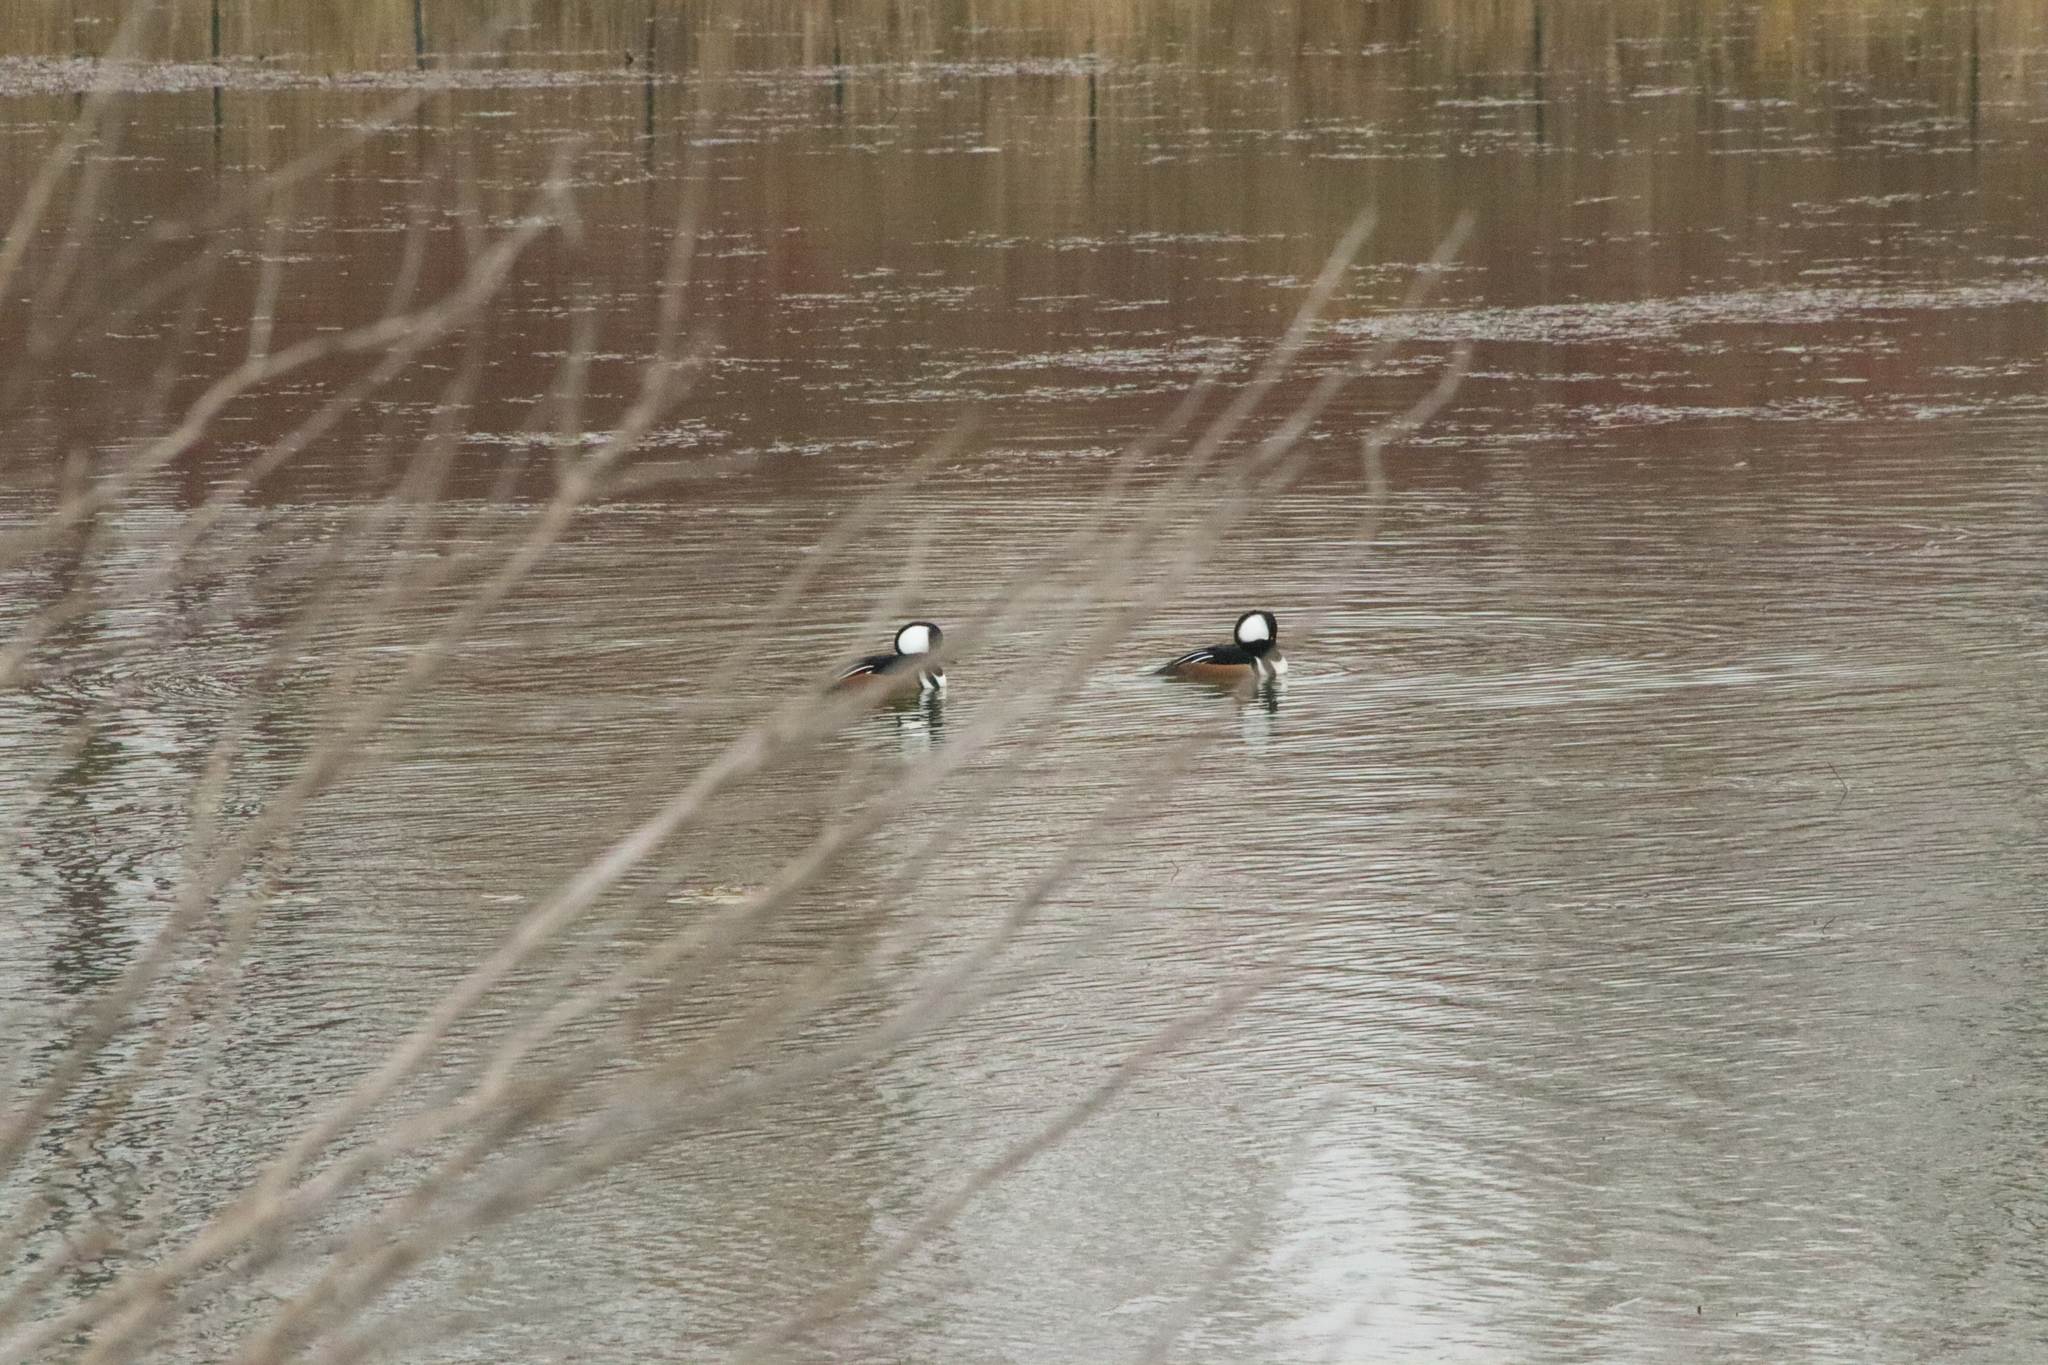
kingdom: Animalia
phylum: Chordata
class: Aves
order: Anseriformes
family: Anatidae
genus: Lophodytes
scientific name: Lophodytes cucullatus
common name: Hooded merganser
